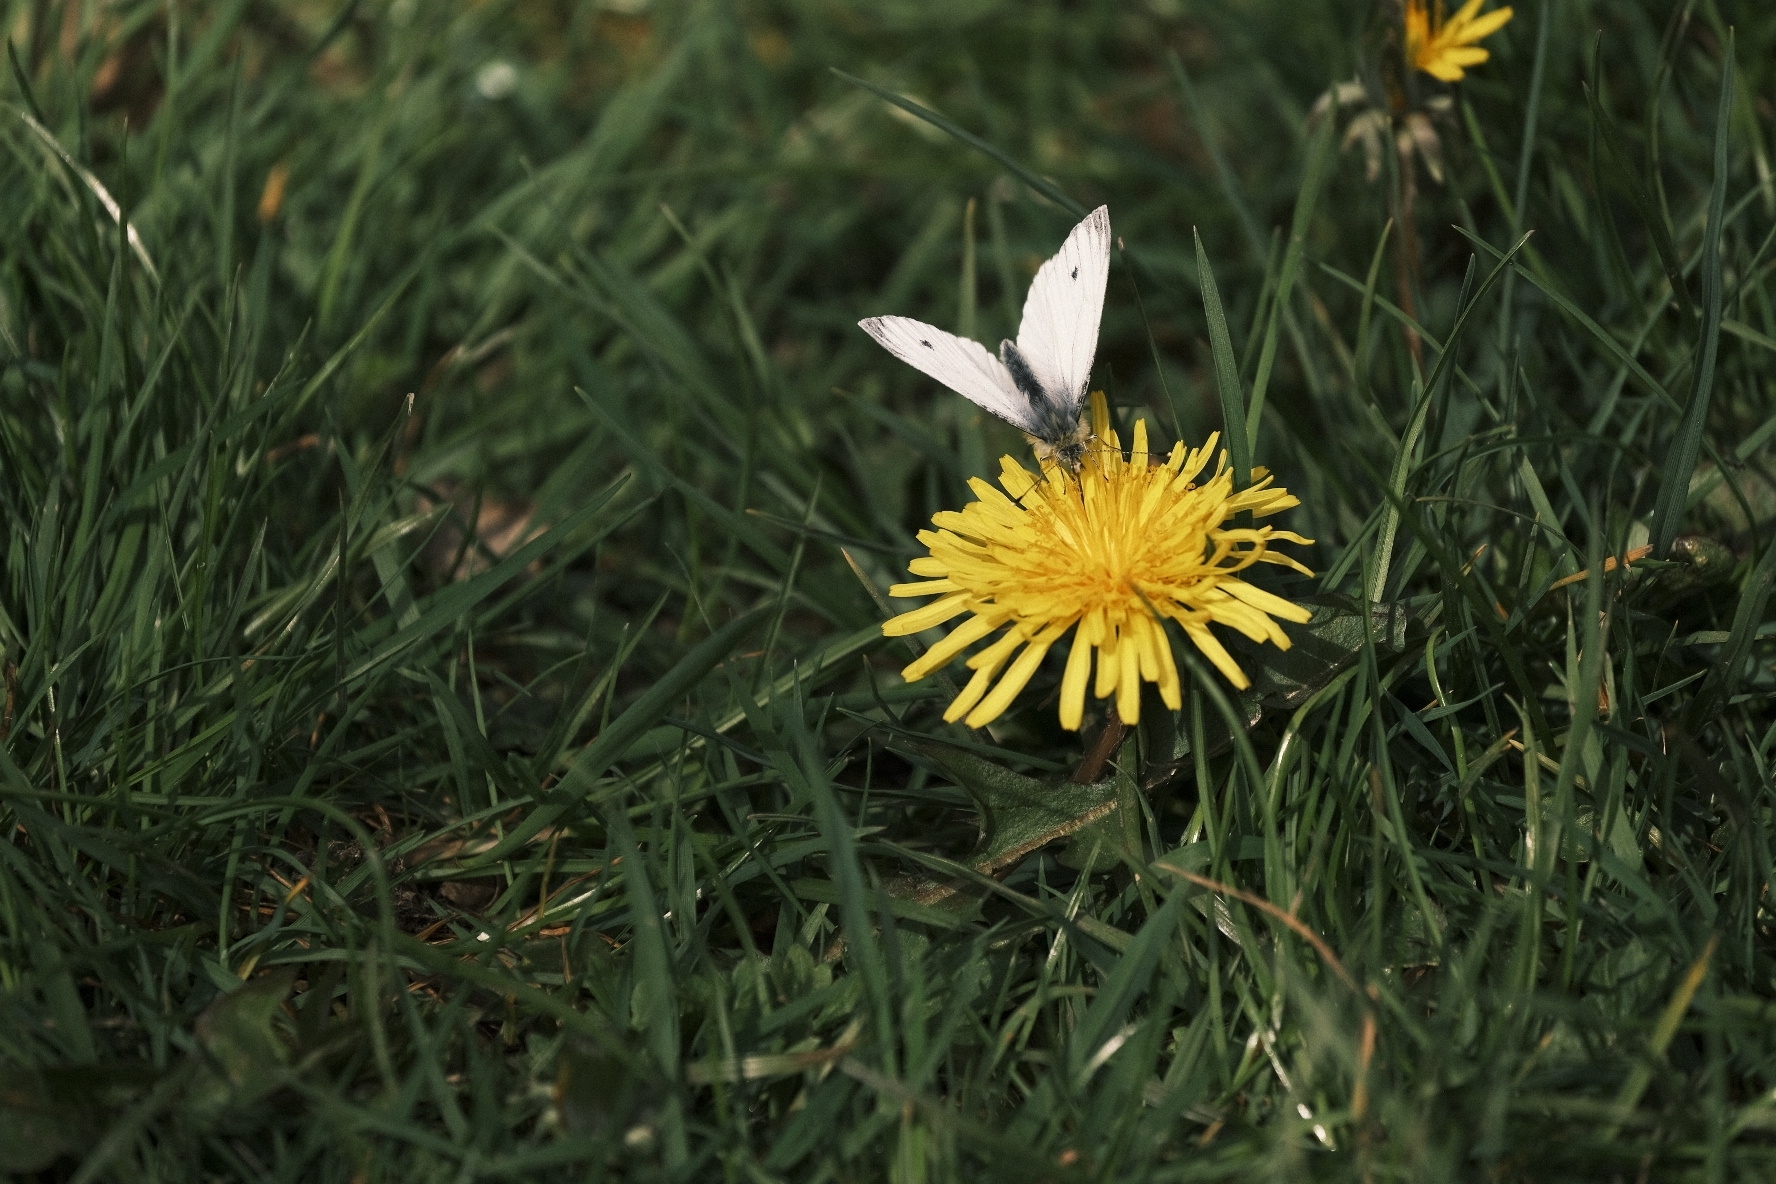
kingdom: Animalia
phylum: Arthropoda
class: Insecta
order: Lepidoptera
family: Pieridae
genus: Pieris
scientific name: Pieris napi
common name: Green-veined white
